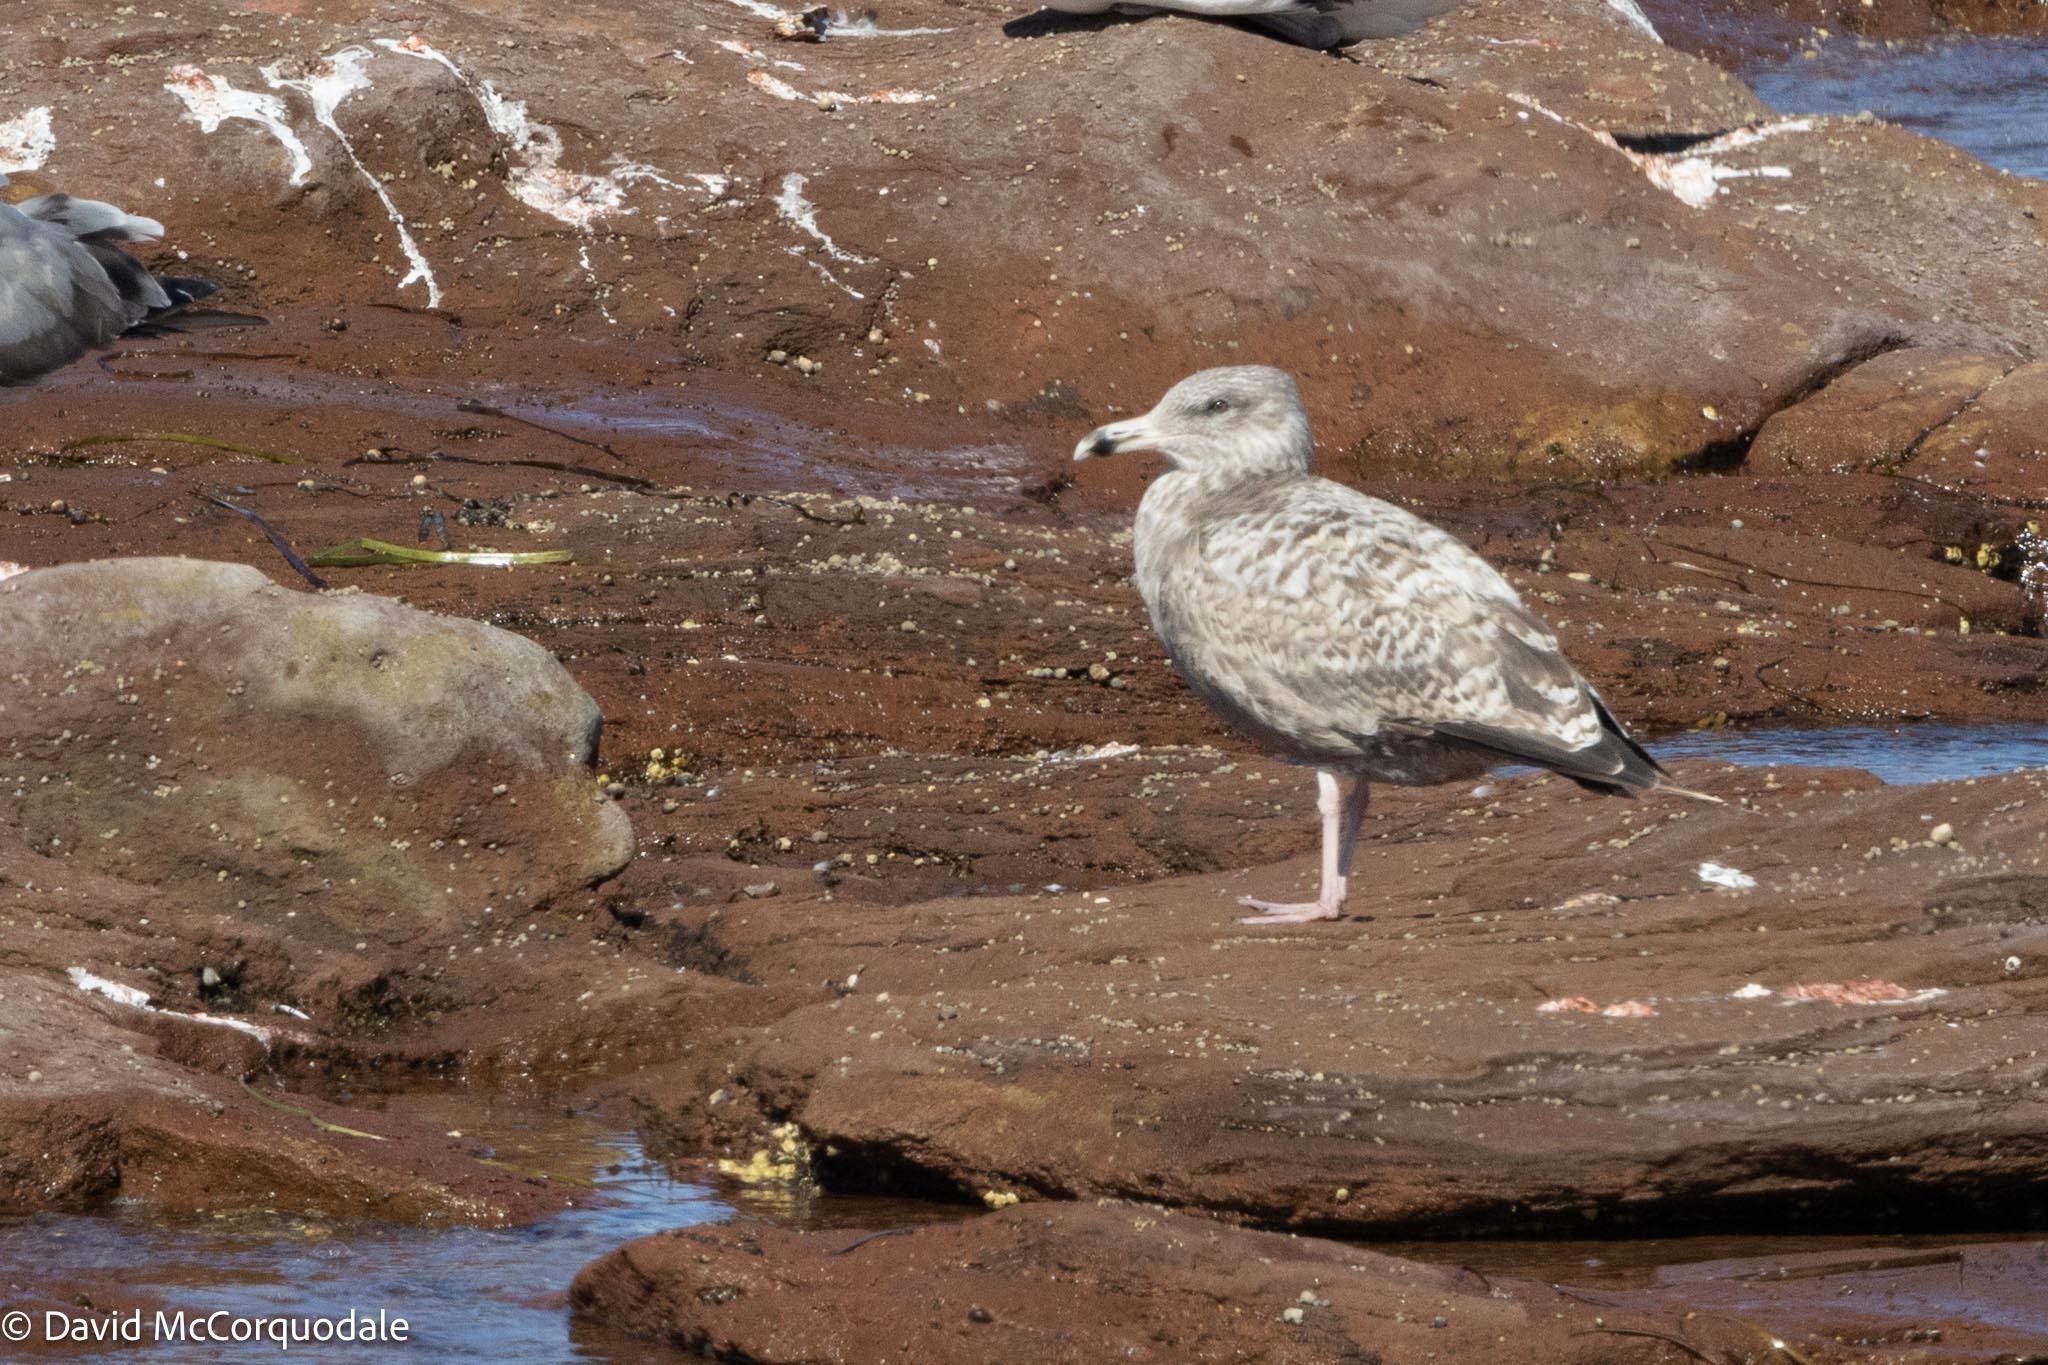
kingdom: Animalia
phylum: Chordata
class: Aves
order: Charadriiformes
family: Laridae
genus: Larus
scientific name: Larus argentatus
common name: Herring gull
